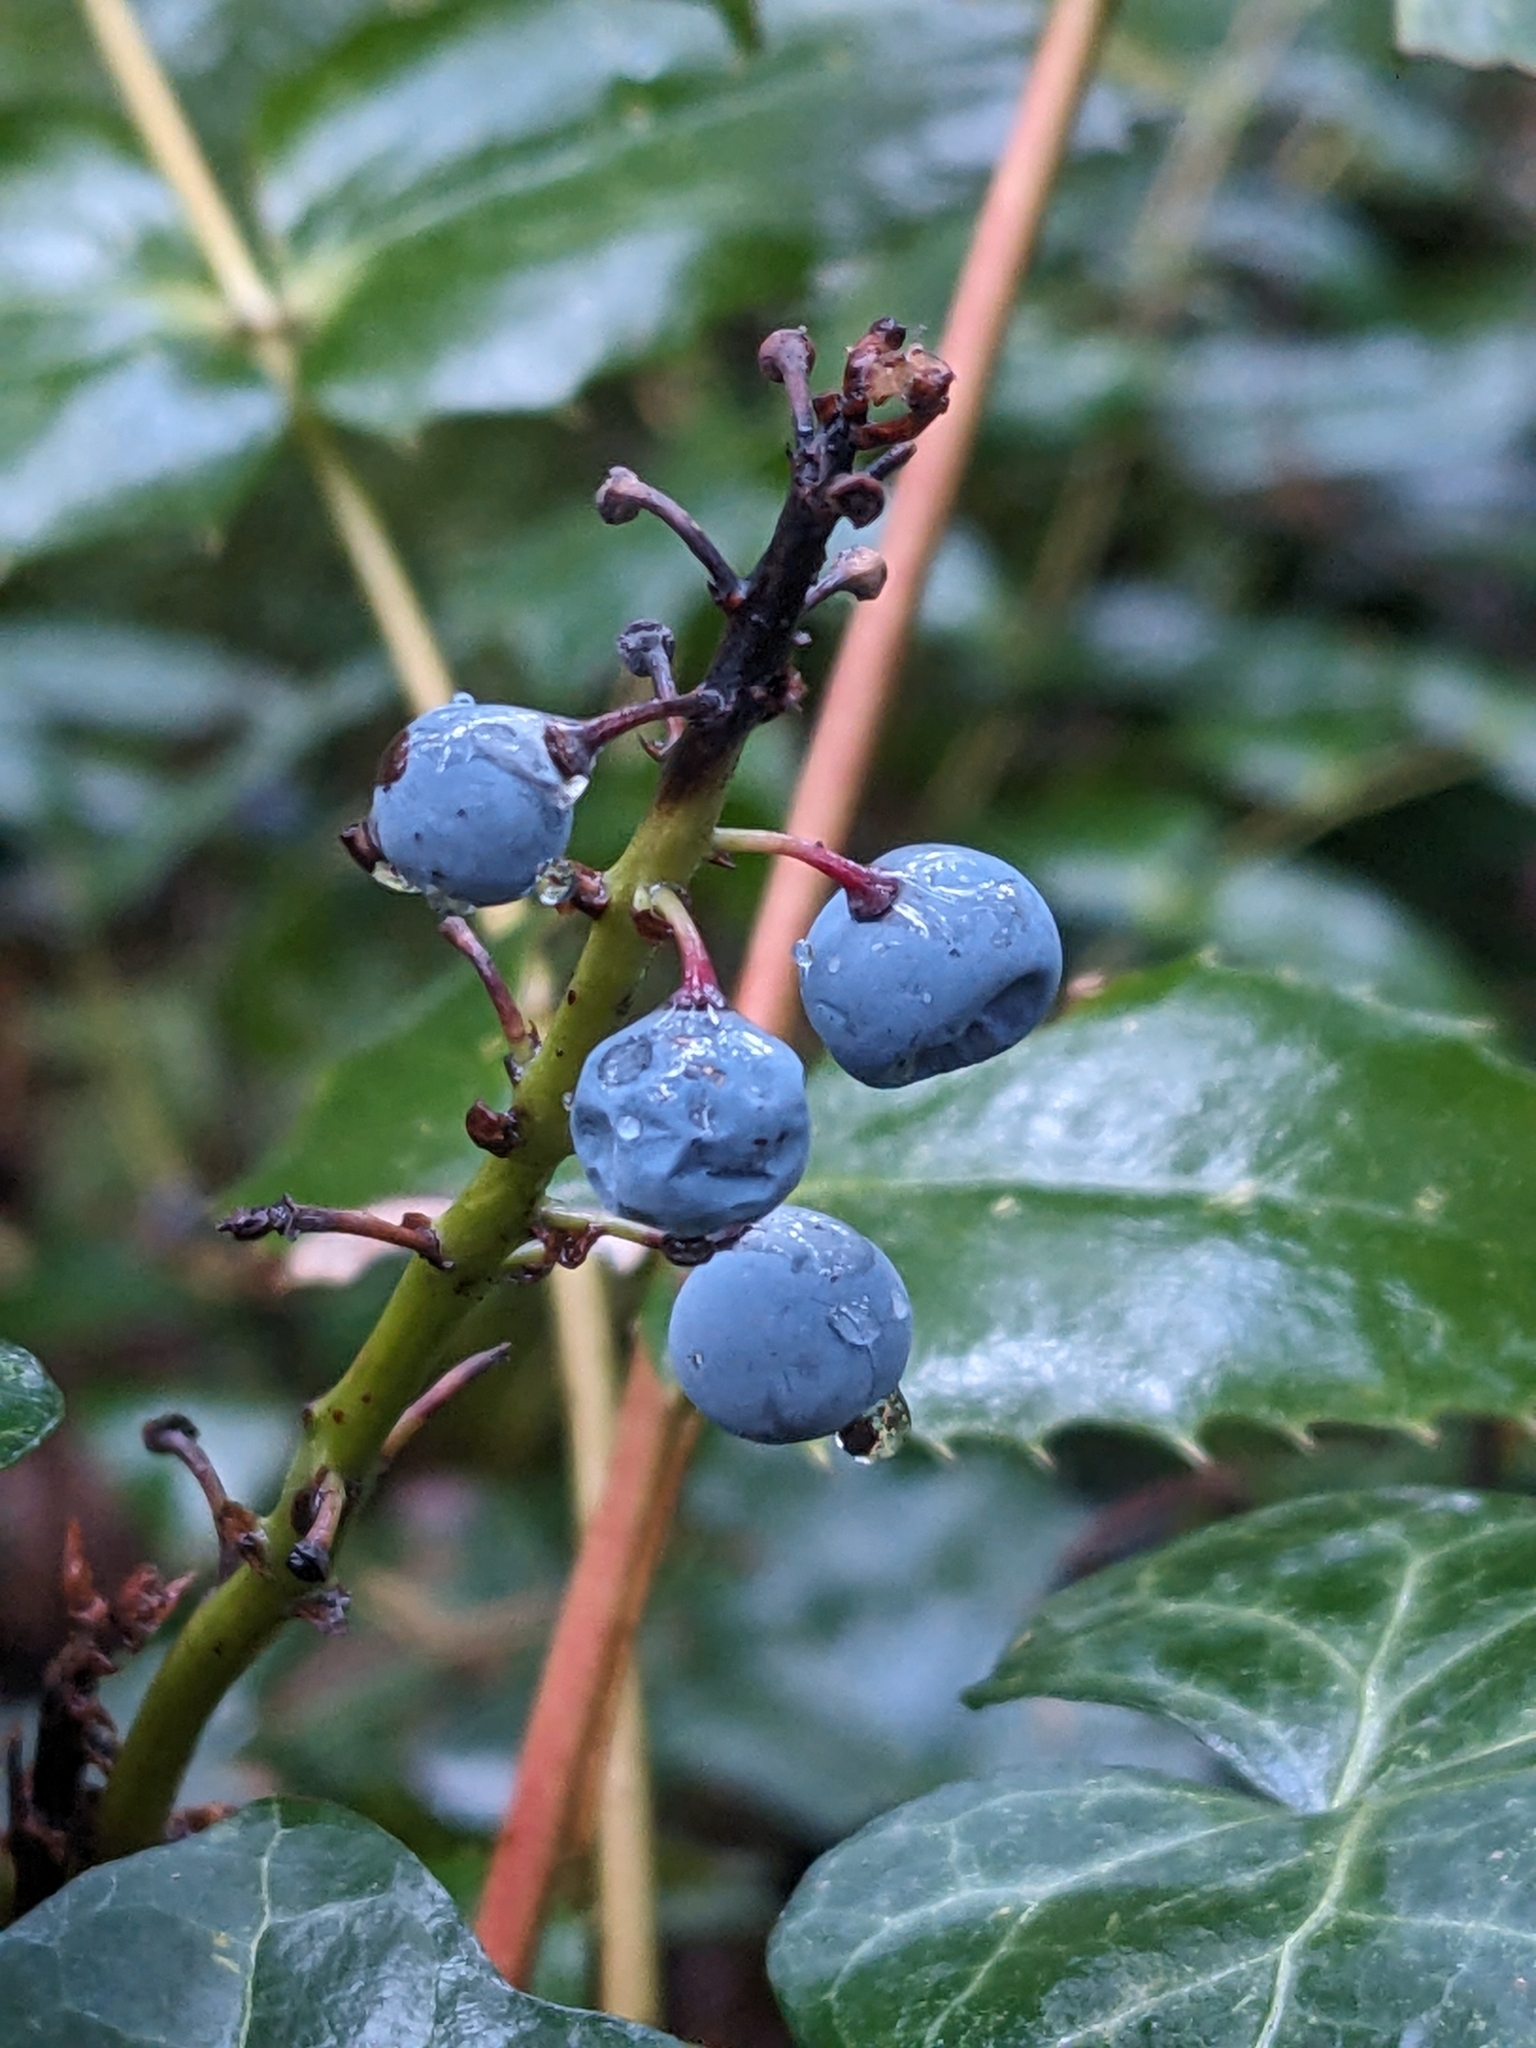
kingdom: Plantae
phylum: Tracheophyta
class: Magnoliopsida
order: Ranunculales
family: Berberidaceae
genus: Mahonia
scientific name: Mahonia nervosa
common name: Cascade oregon-grape
